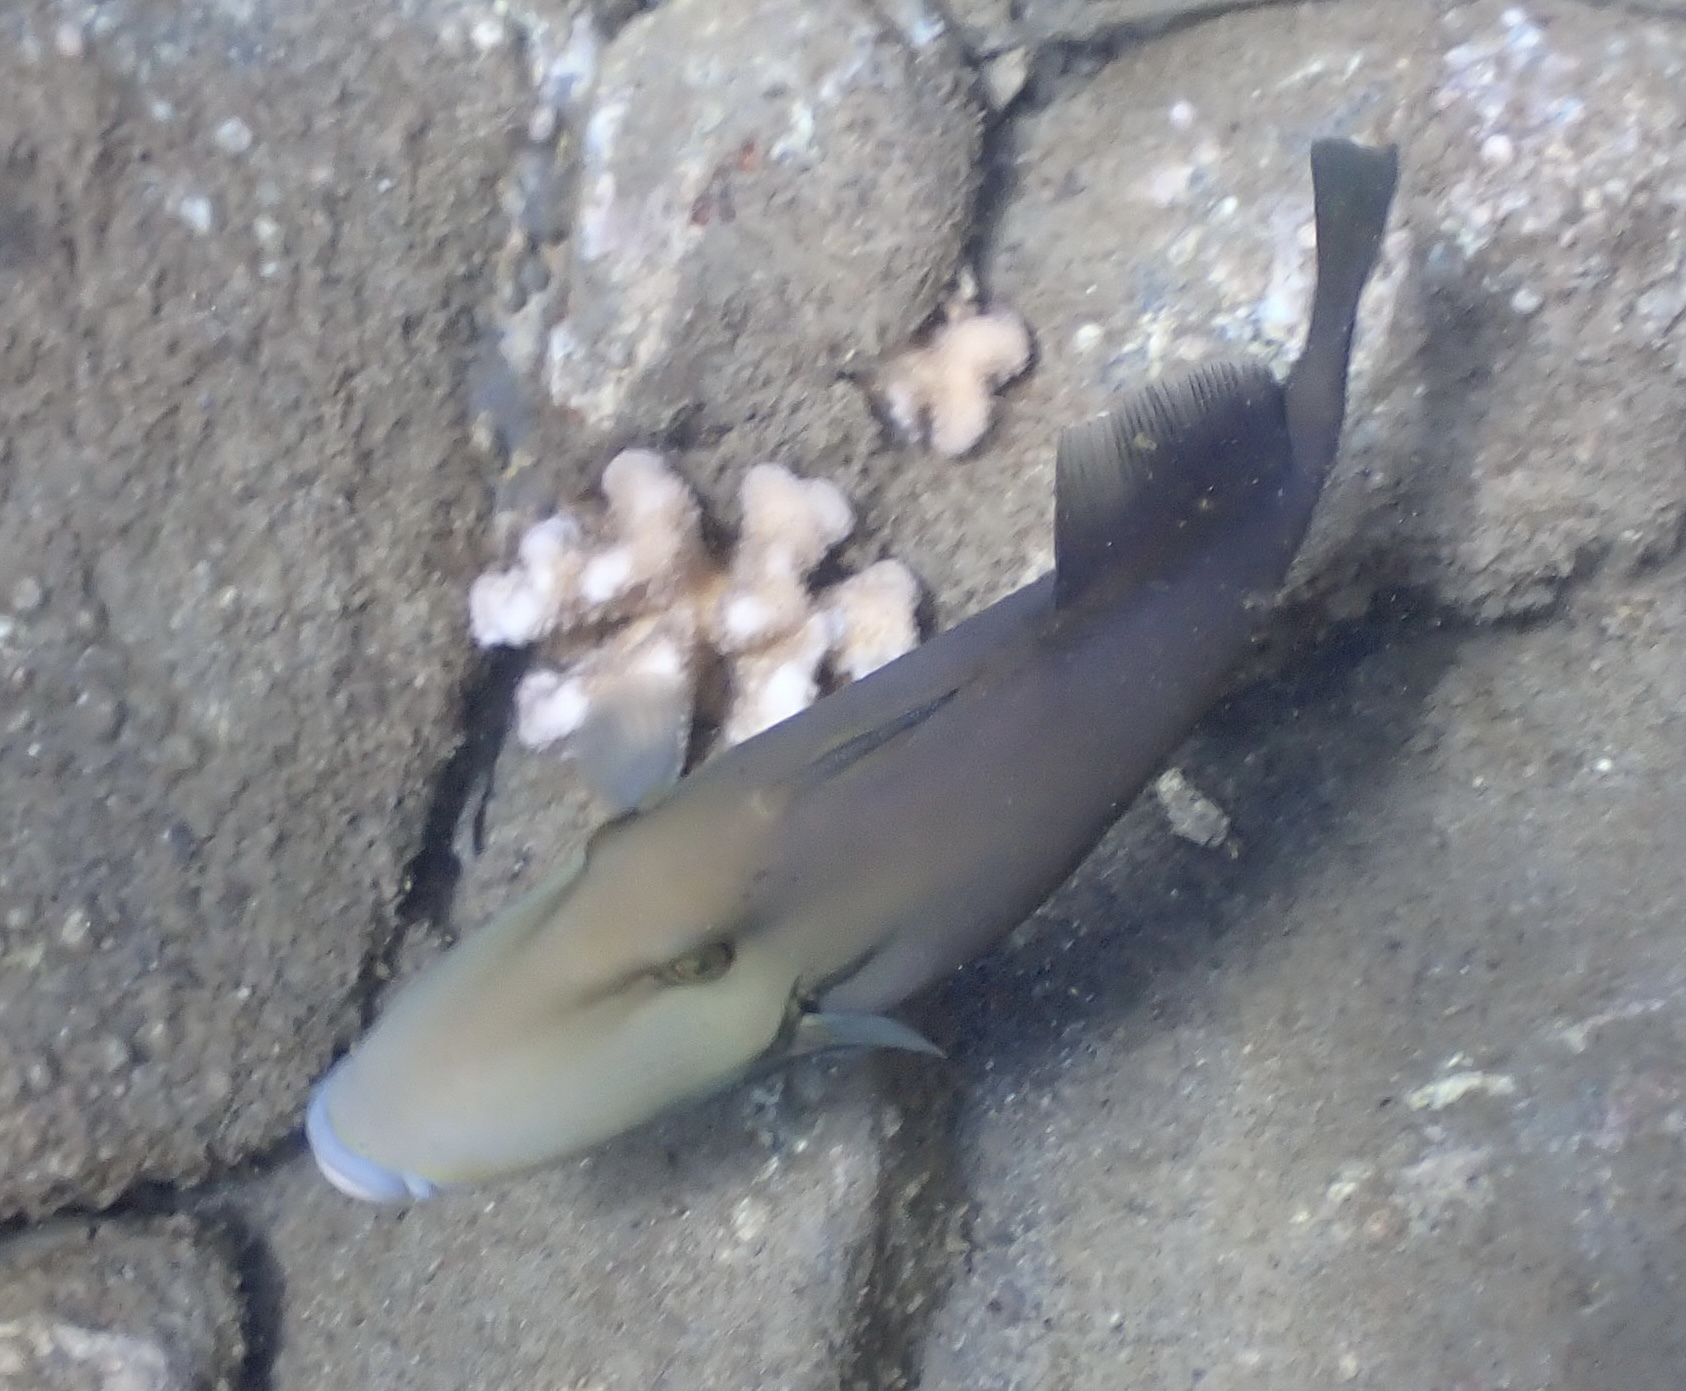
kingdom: Animalia
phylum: Chordata
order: Tetraodontiformes
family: Balistidae
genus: Sufflamen
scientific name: Sufflamen fraenatum
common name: Bridle triggerfish
